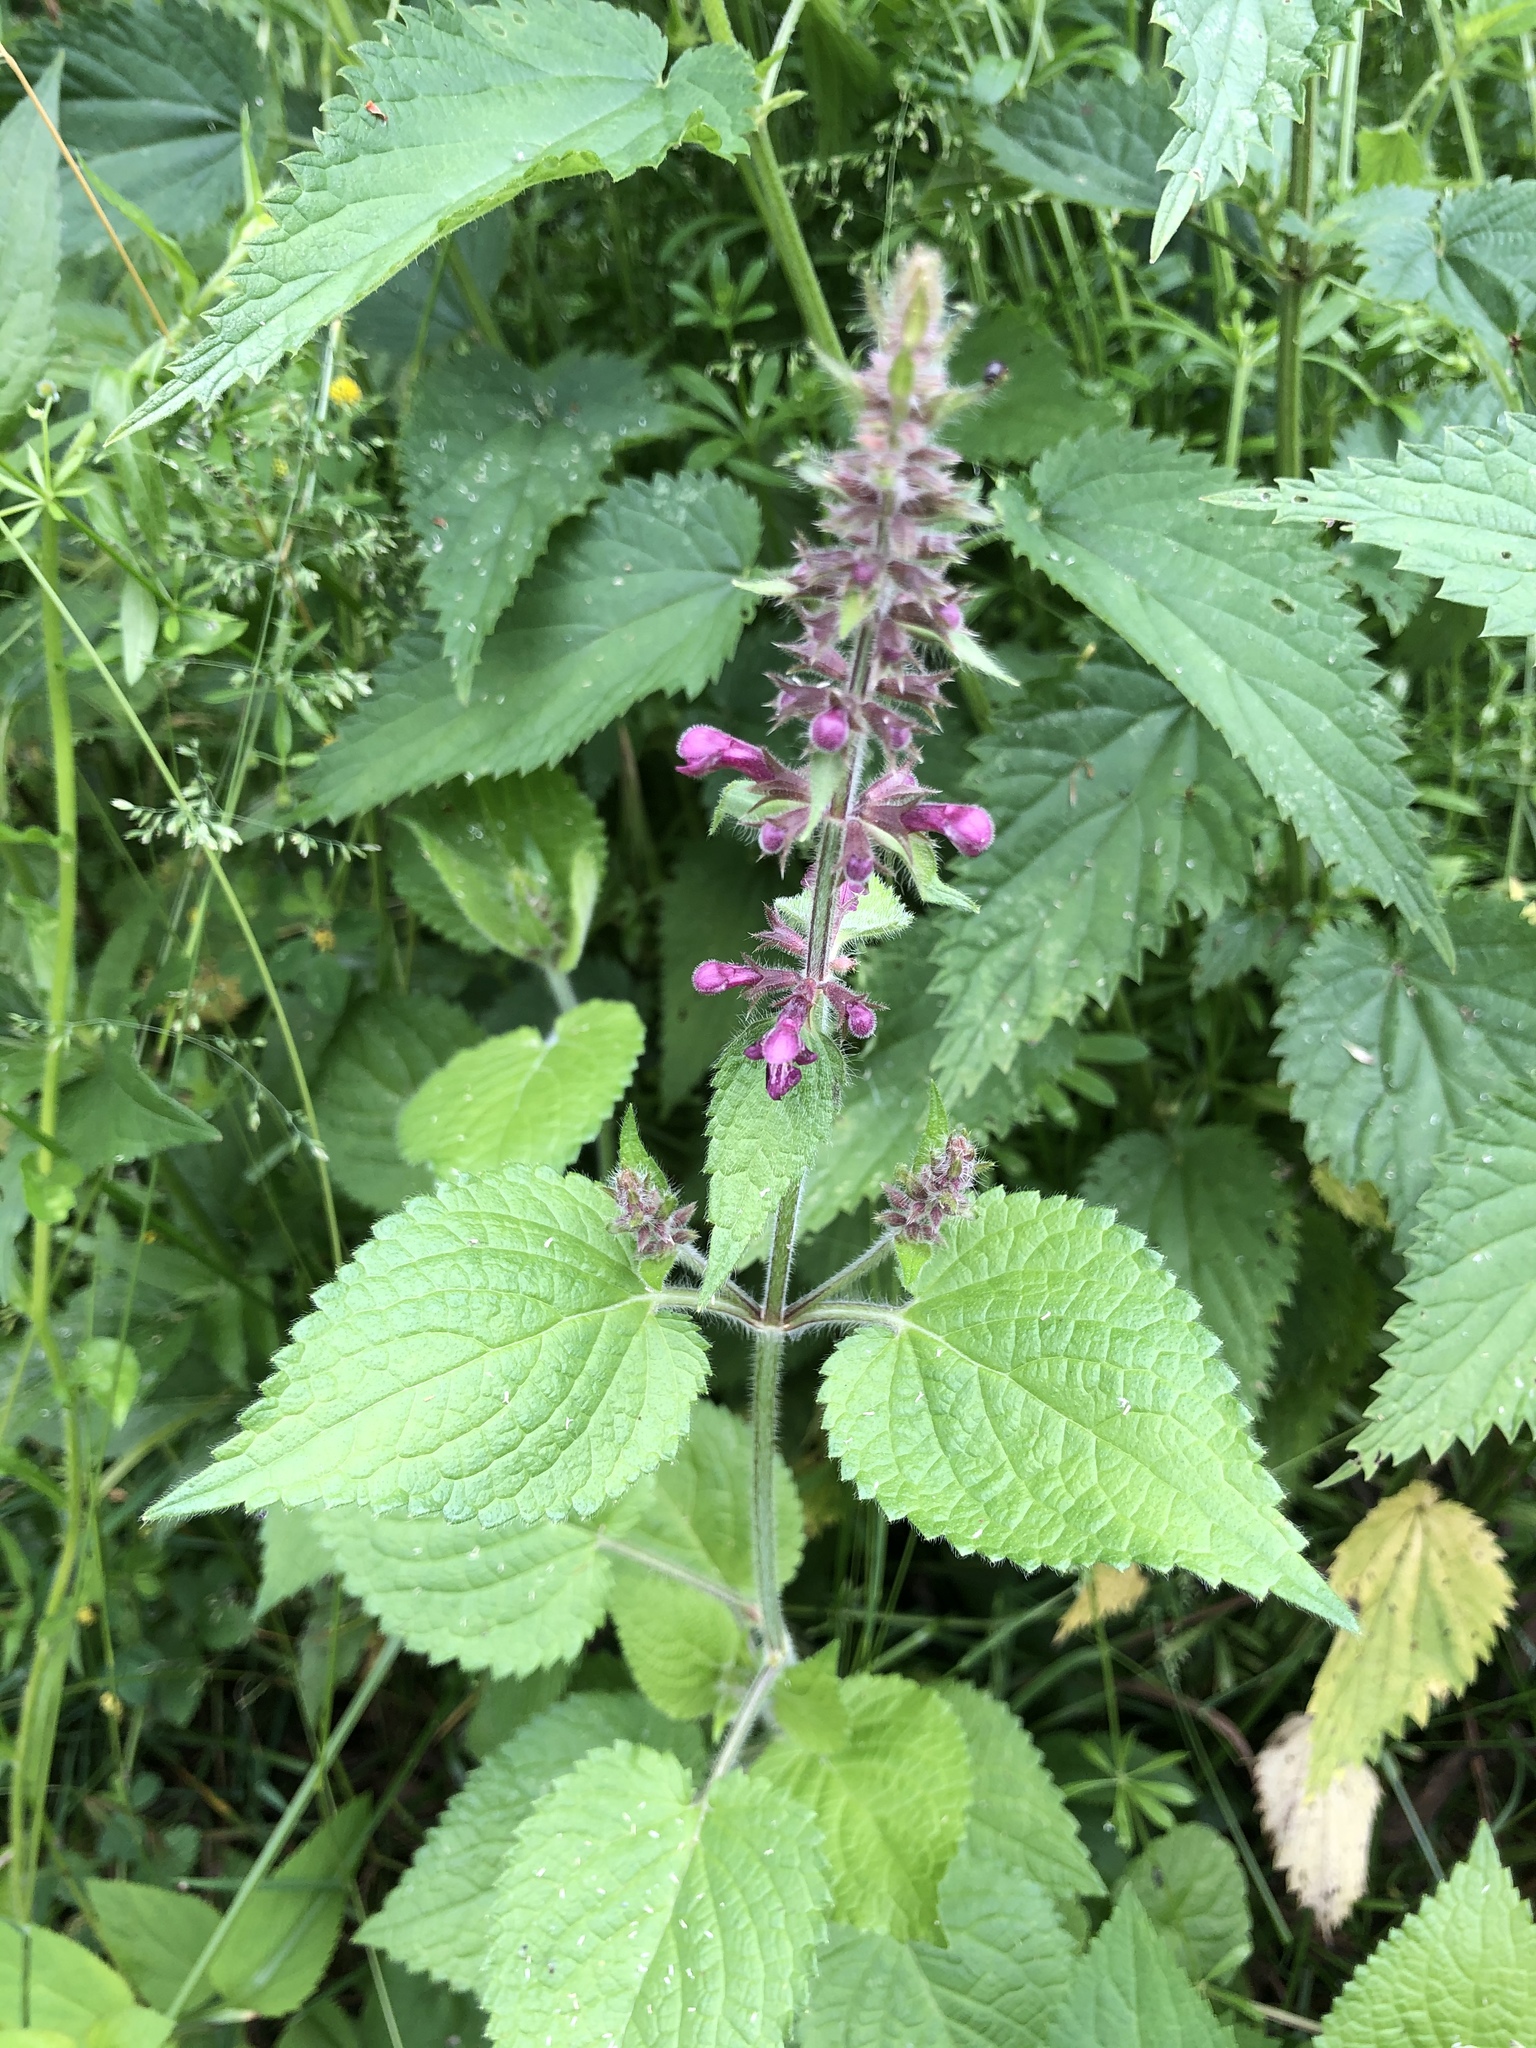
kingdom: Plantae
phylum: Tracheophyta
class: Magnoliopsida
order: Lamiales
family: Lamiaceae
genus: Stachys
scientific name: Stachys sylvatica
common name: Hedge woundwort
